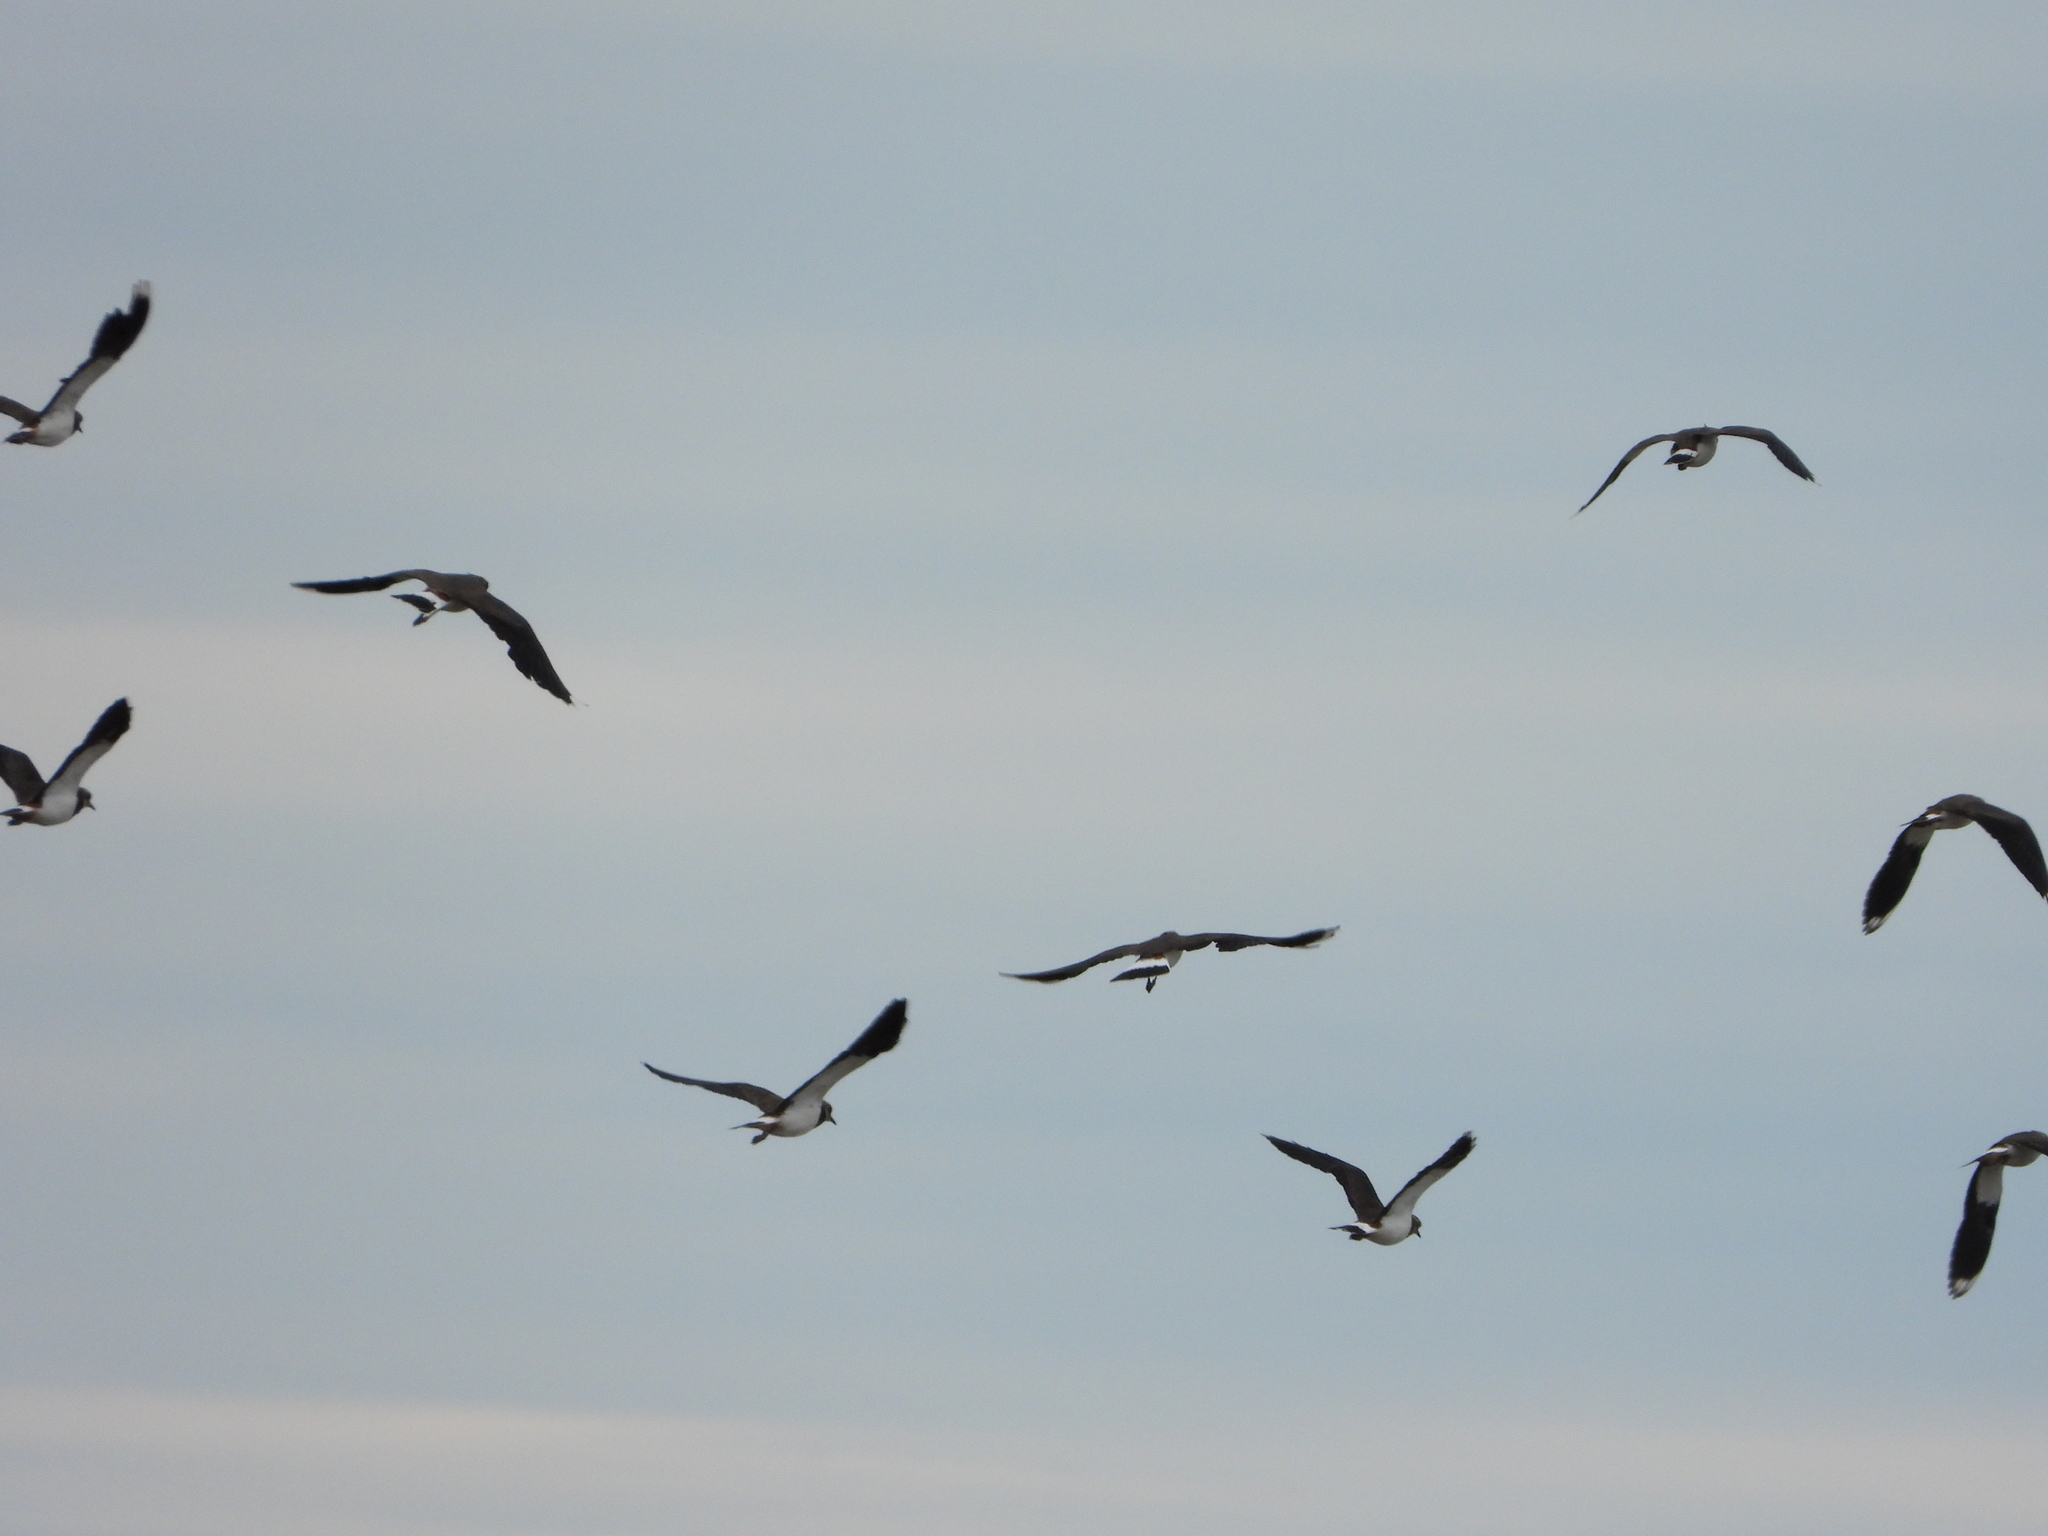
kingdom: Animalia
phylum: Chordata
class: Aves
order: Charadriiformes
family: Charadriidae
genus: Vanellus
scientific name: Vanellus vanellus
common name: Northern lapwing
